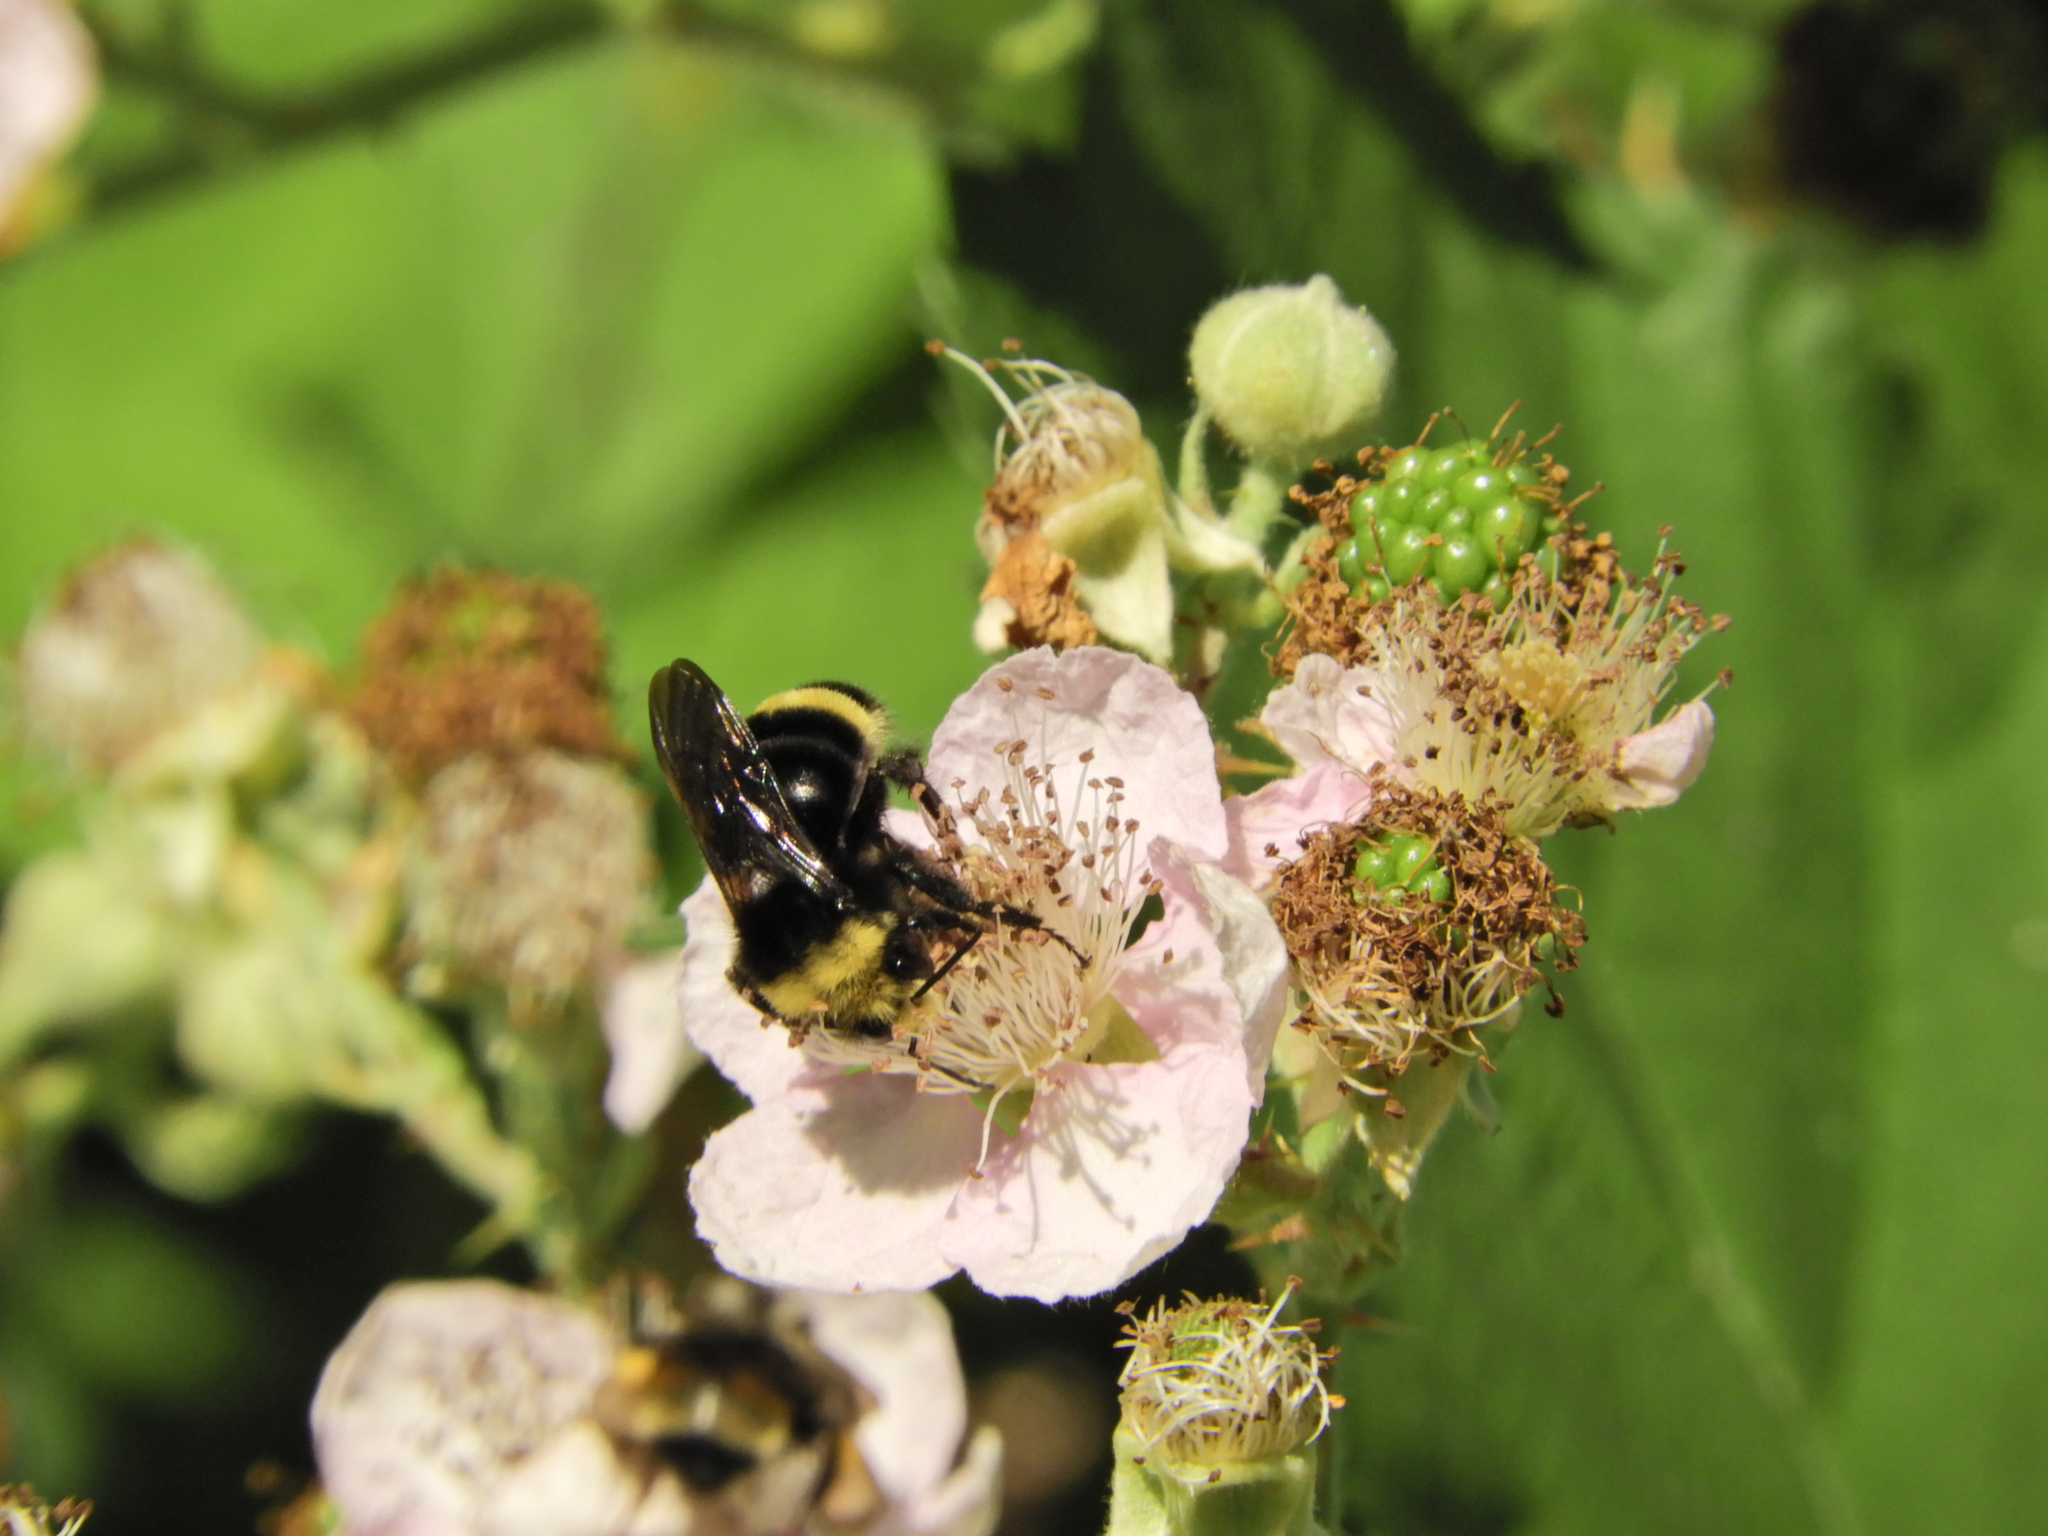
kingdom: Animalia
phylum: Arthropoda
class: Insecta
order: Hymenoptera
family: Apidae
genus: Bombus
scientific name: Bombus vosnesenskii
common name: Vosnesensky bumble bee
